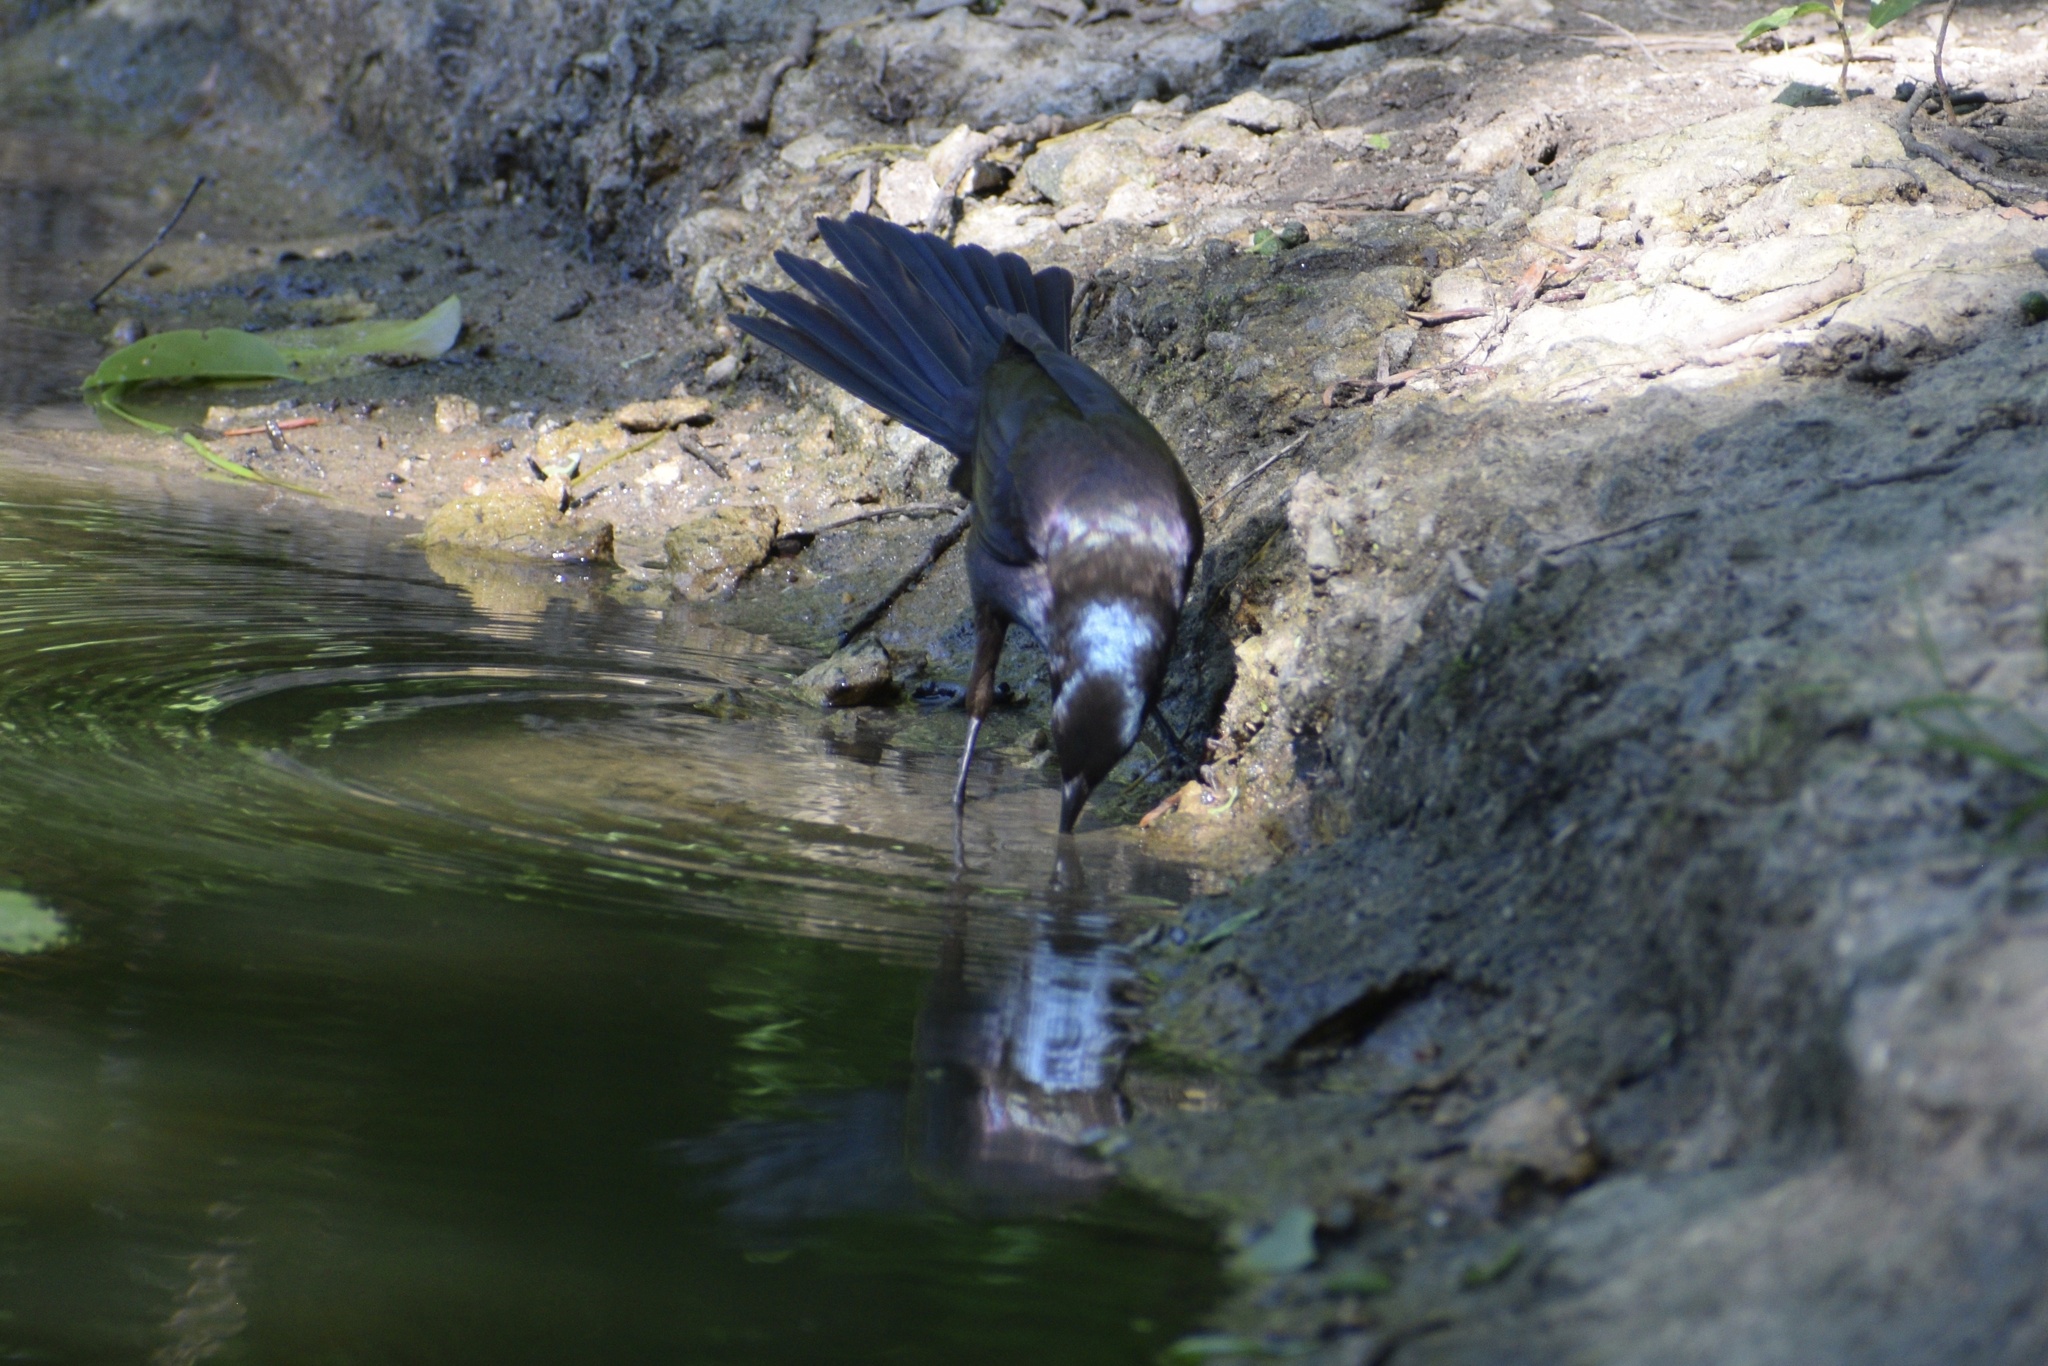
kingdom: Animalia
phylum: Chordata
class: Aves
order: Passeriformes
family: Icteridae
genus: Quiscalus
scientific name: Quiscalus quiscula
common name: Common grackle
